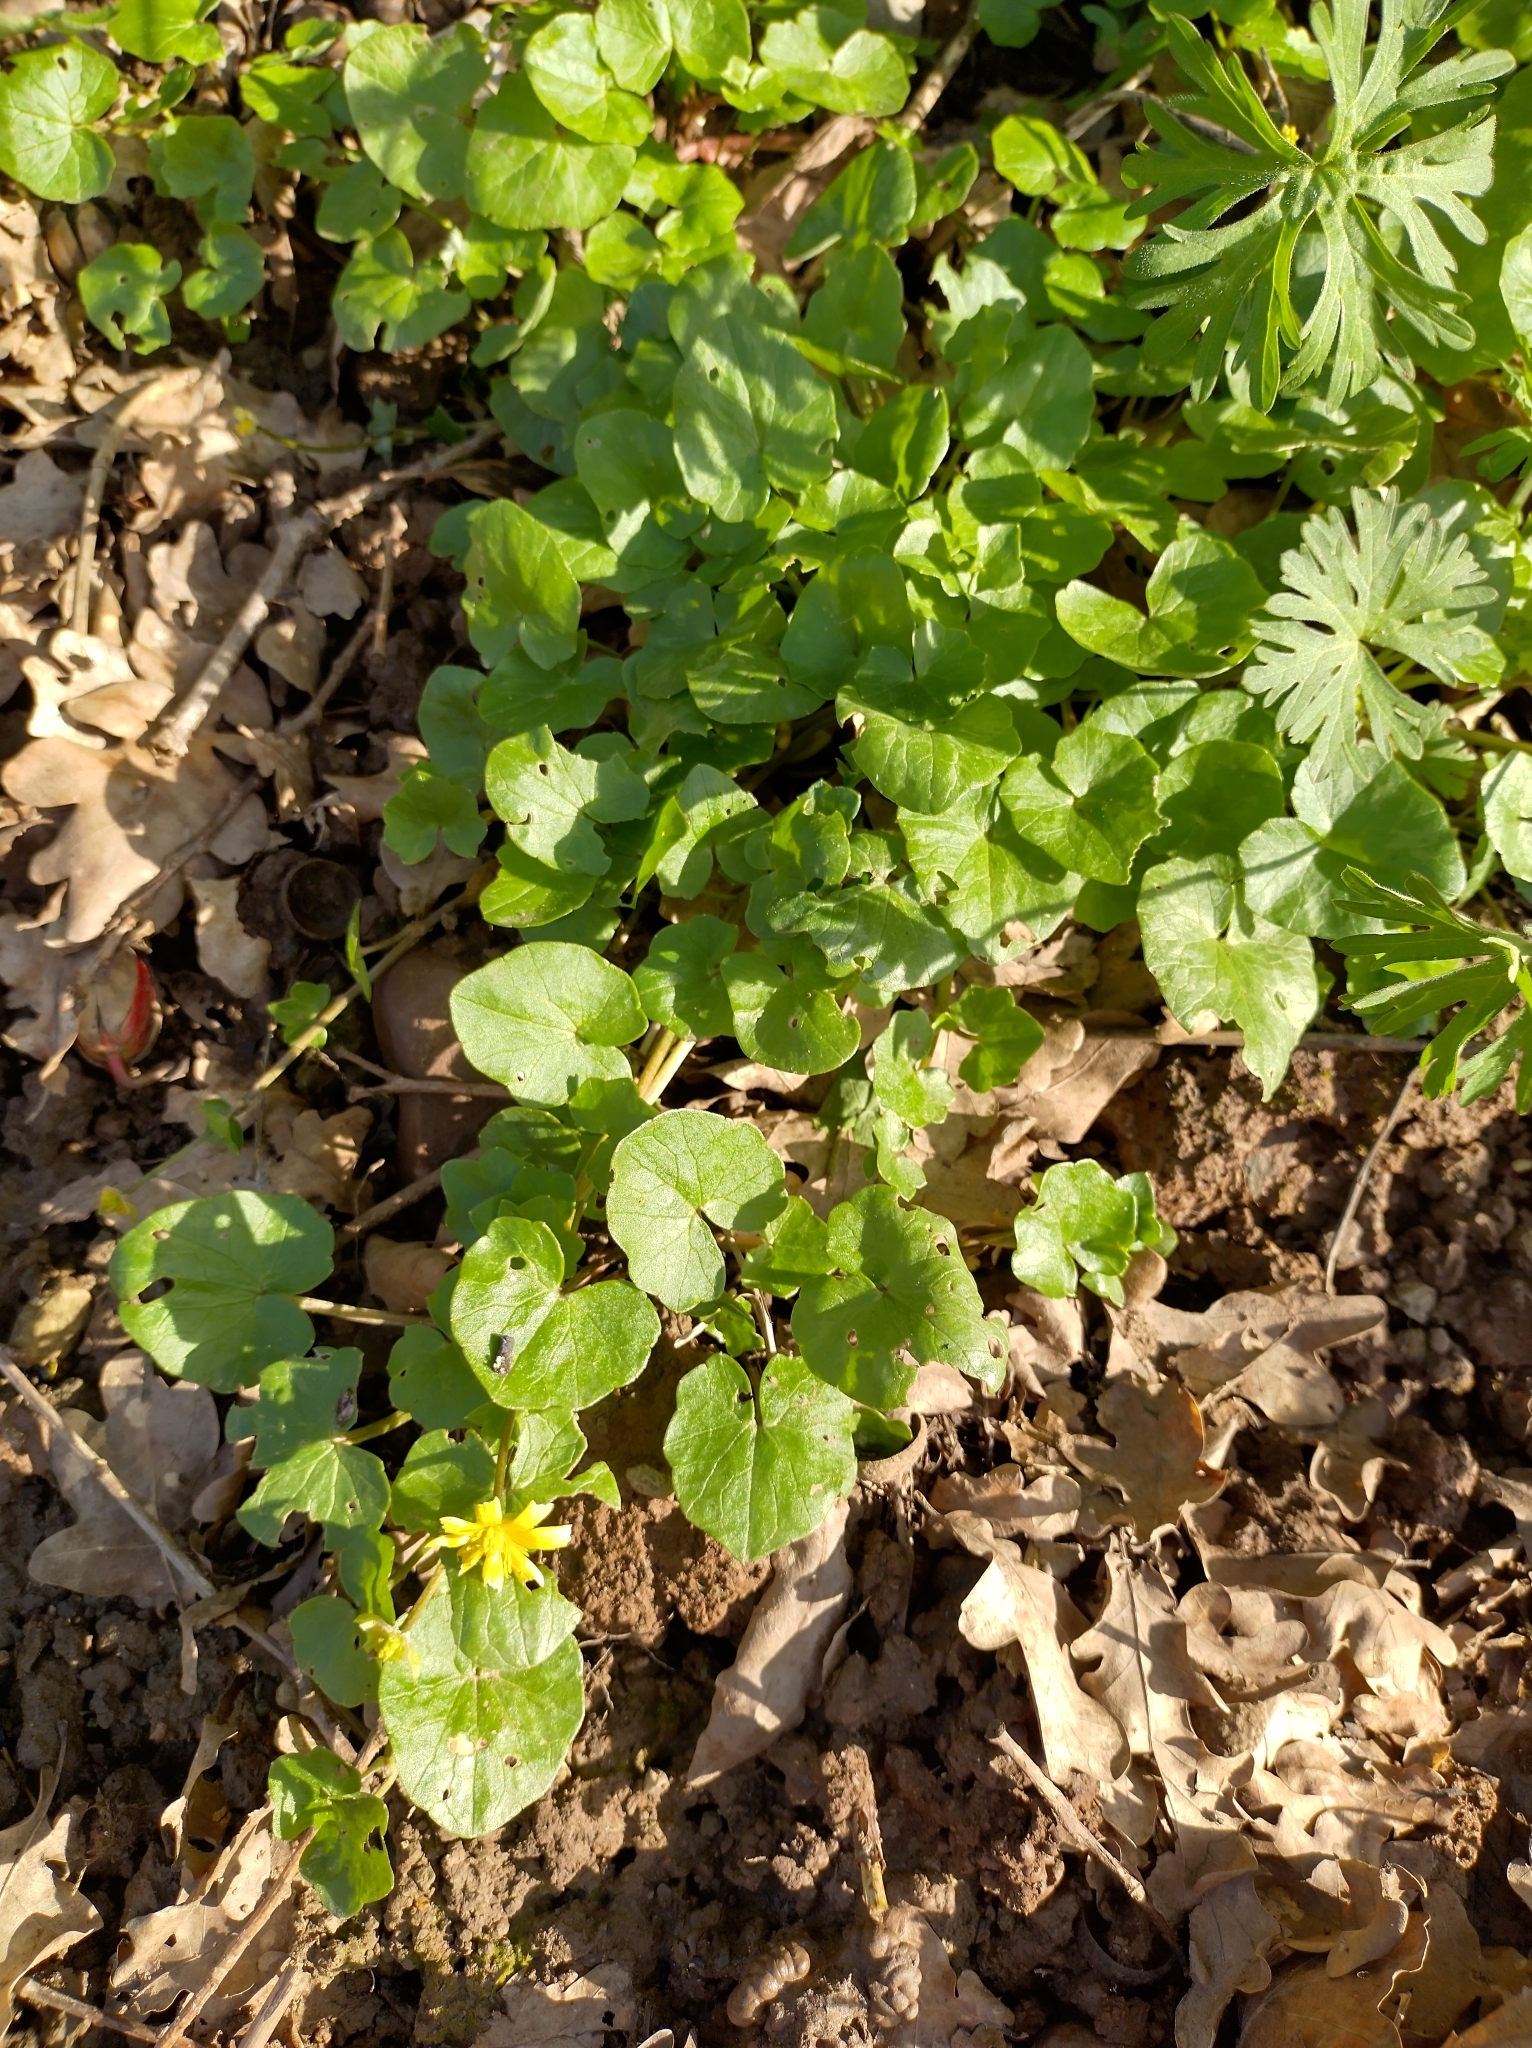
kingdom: Plantae
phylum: Tracheophyta
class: Magnoliopsida
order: Ranunculales
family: Ranunculaceae
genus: Ficaria
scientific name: Ficaria verna
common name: Lesser celandine
